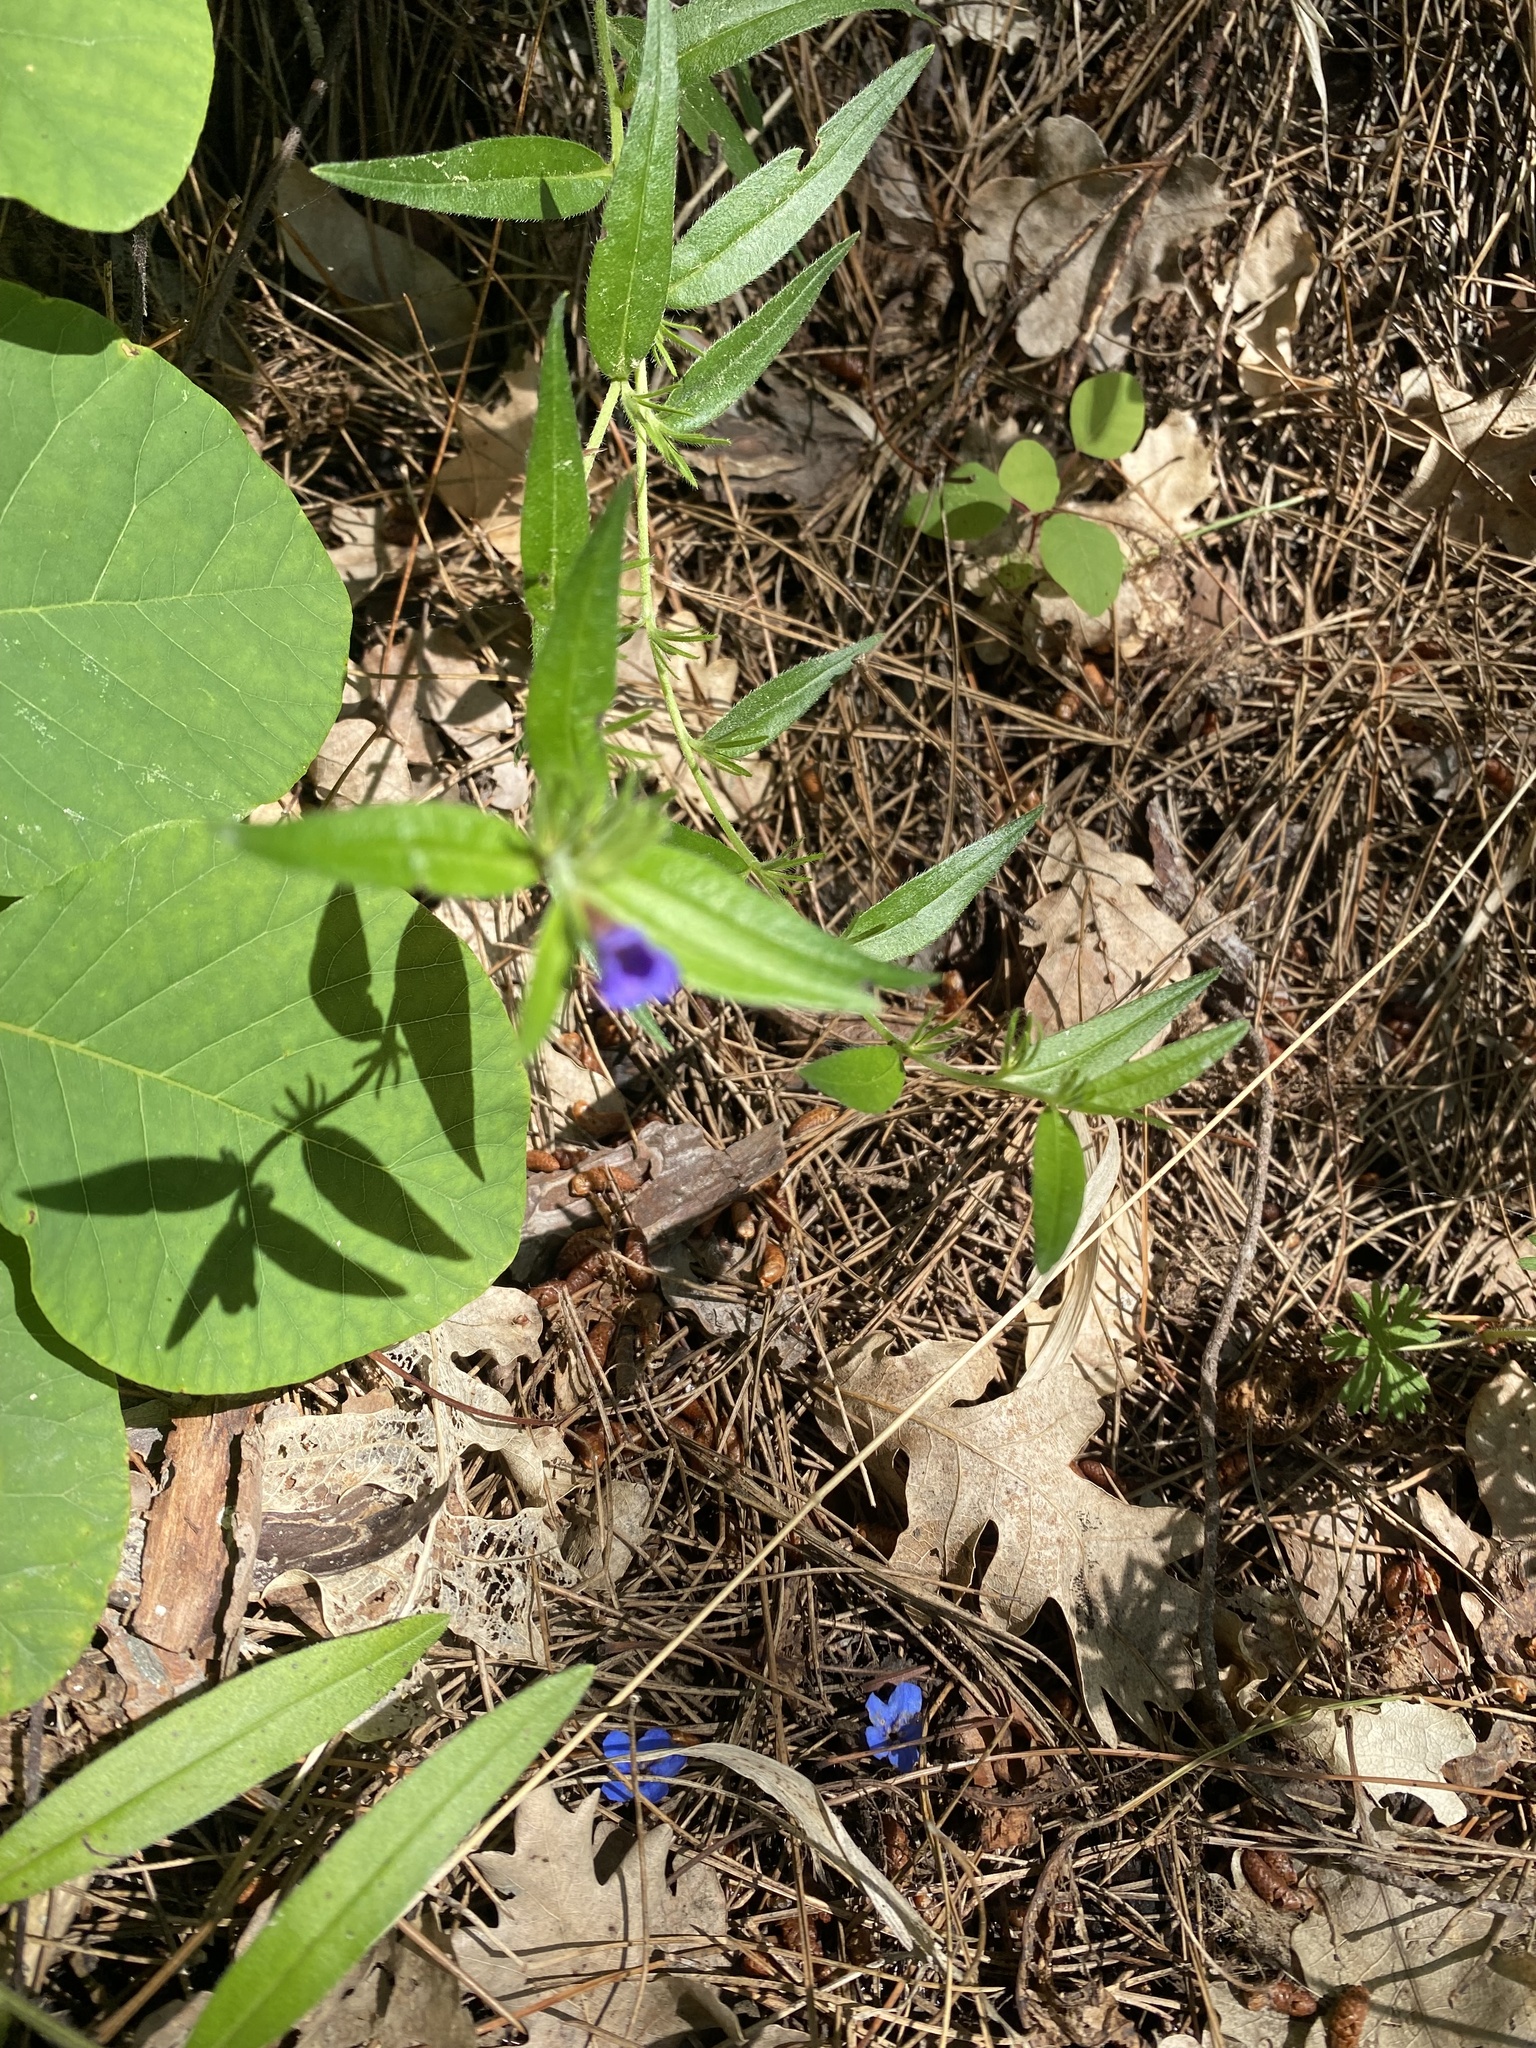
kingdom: Plantae
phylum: Tracheophyta
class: Magnoliopsida
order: Boraginales
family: Boraginaceae
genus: Aegonychon
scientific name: Aegonychon purpurocaeruleum
